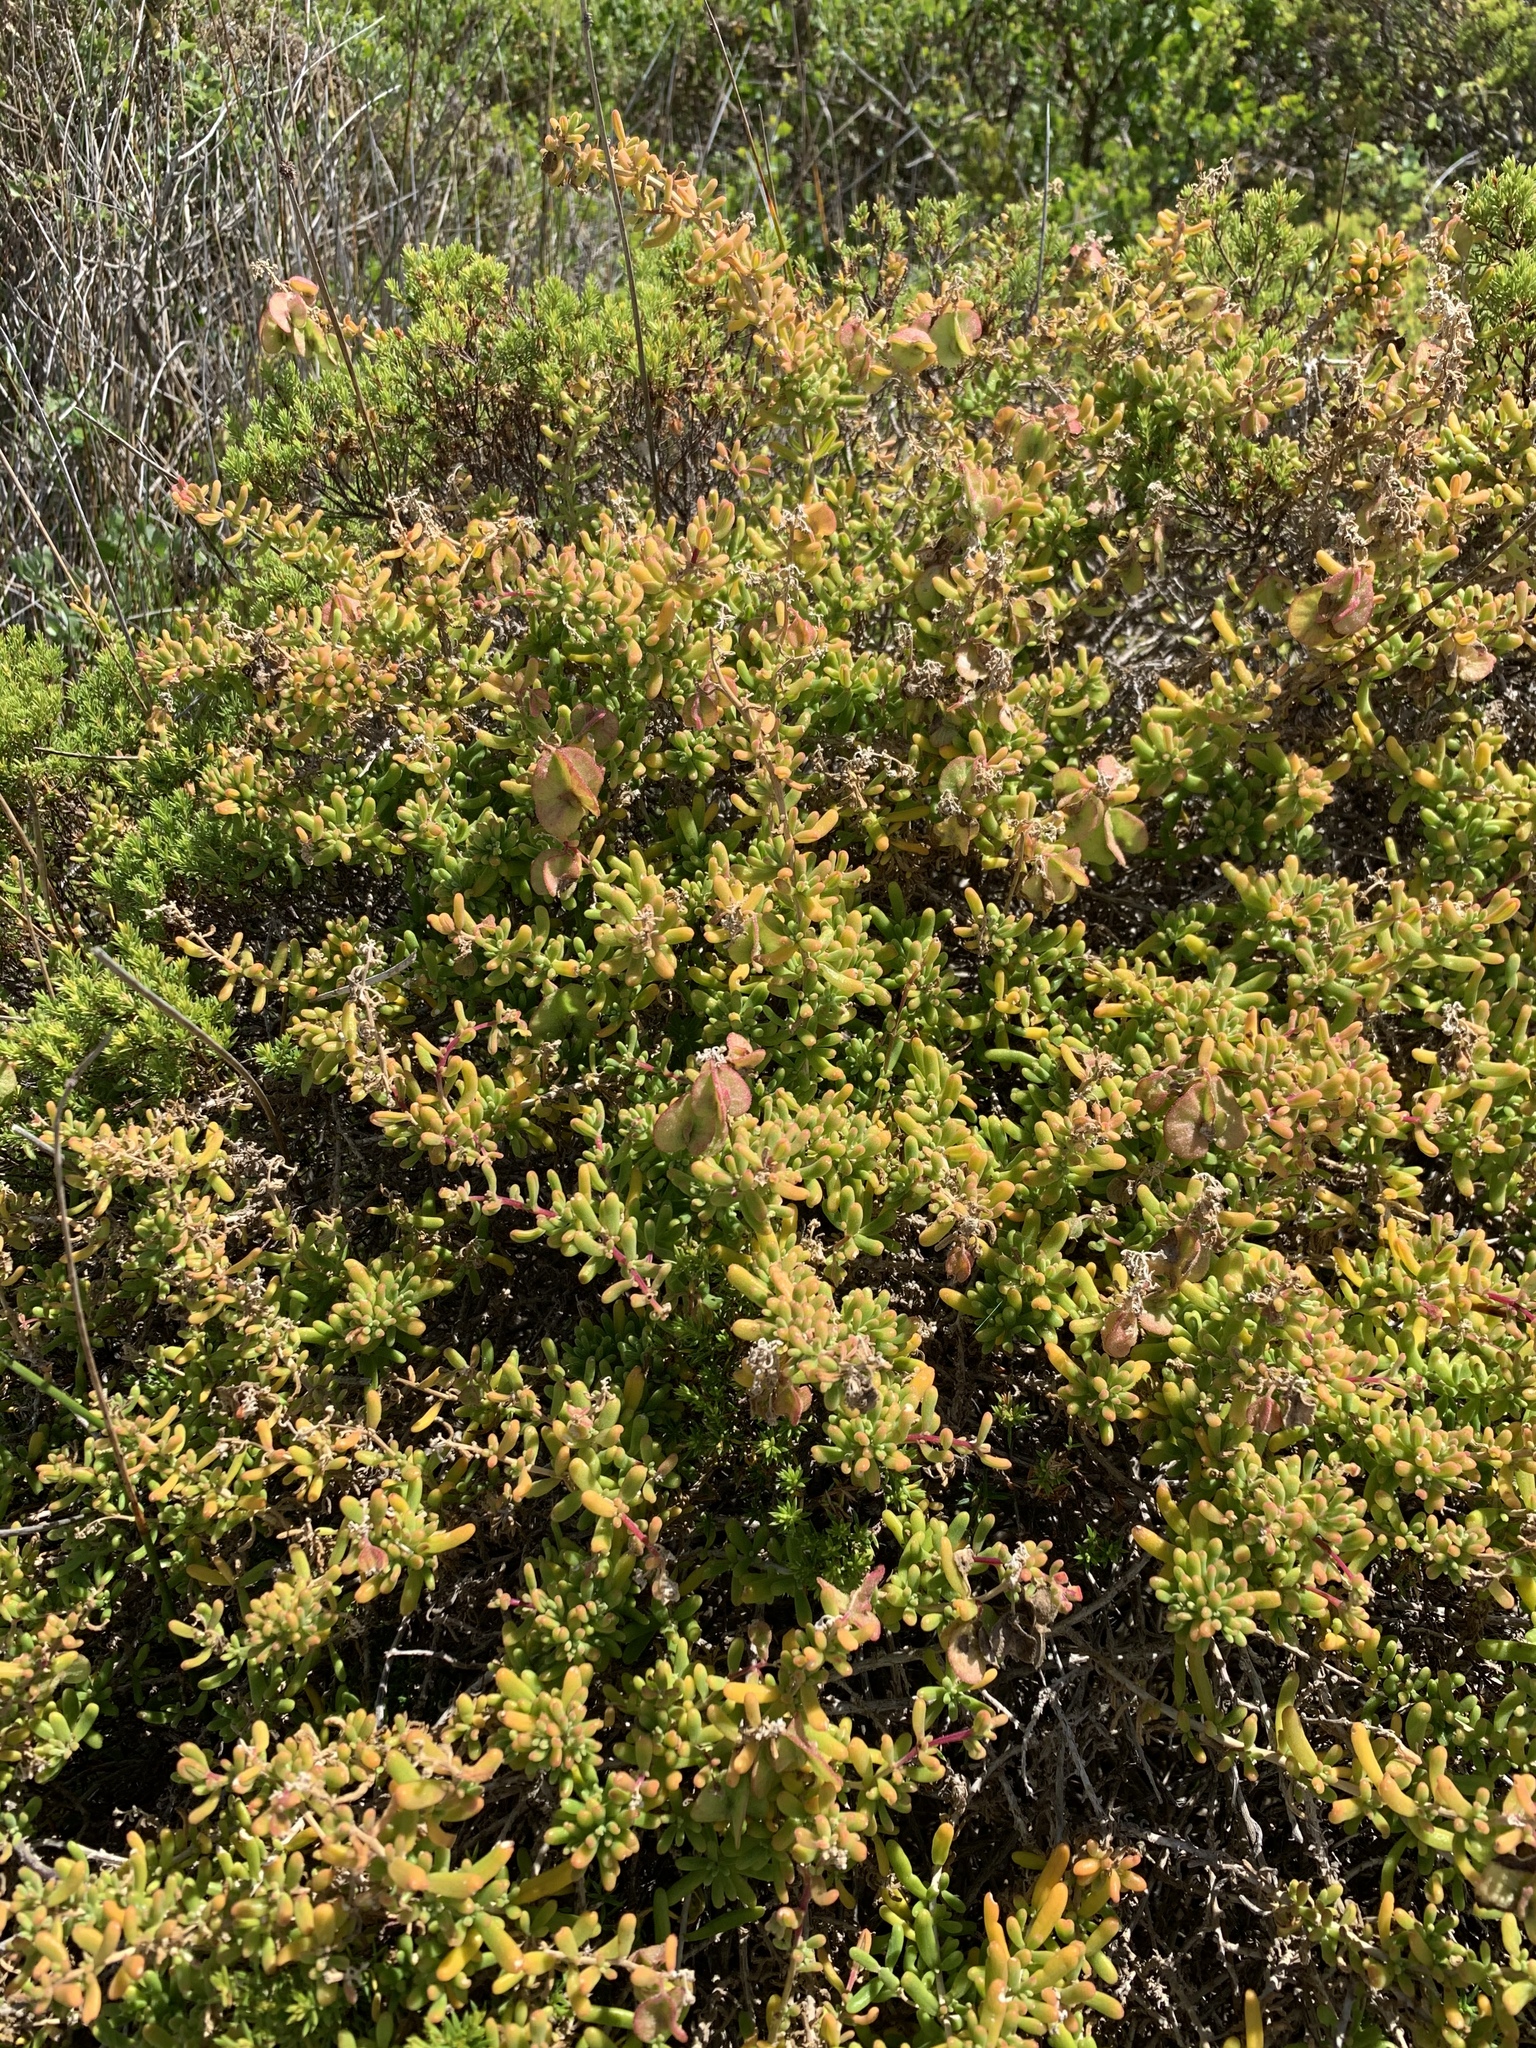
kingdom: Plantae
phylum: Tracheophyta
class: Magnoliopsida
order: Caryophyllales
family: Aizoaceae
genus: Tetragonia
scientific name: Tetragonia fruticosa
